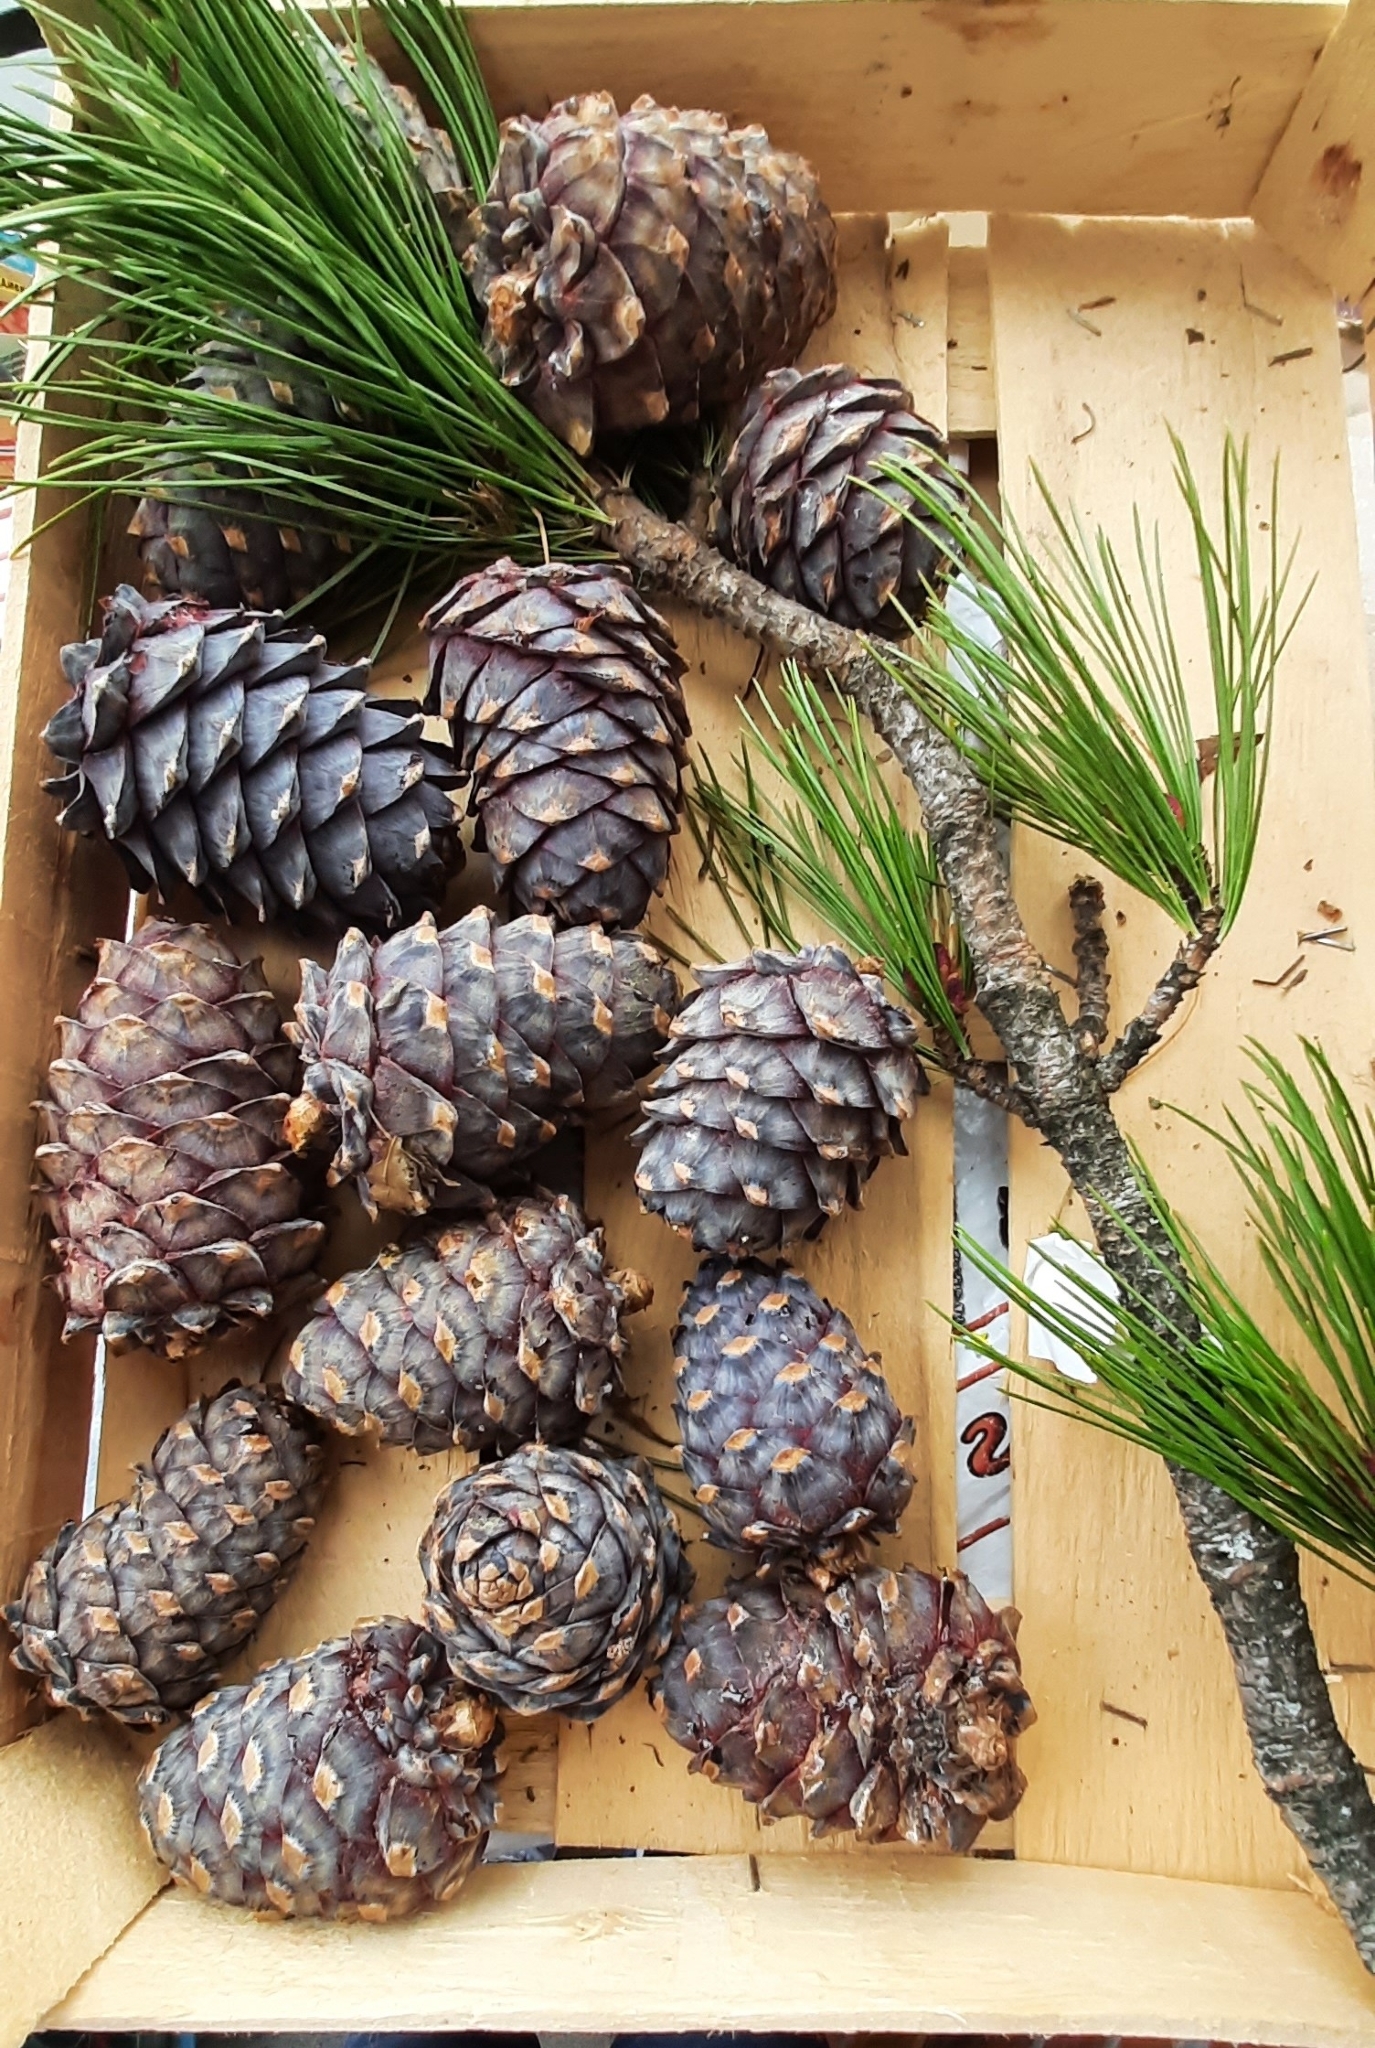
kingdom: Plantae
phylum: Tracheophyta
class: Pinopsida
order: Pinales
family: Pinaceae
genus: Pinus
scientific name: Pinus sibirica
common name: Siberian pine
